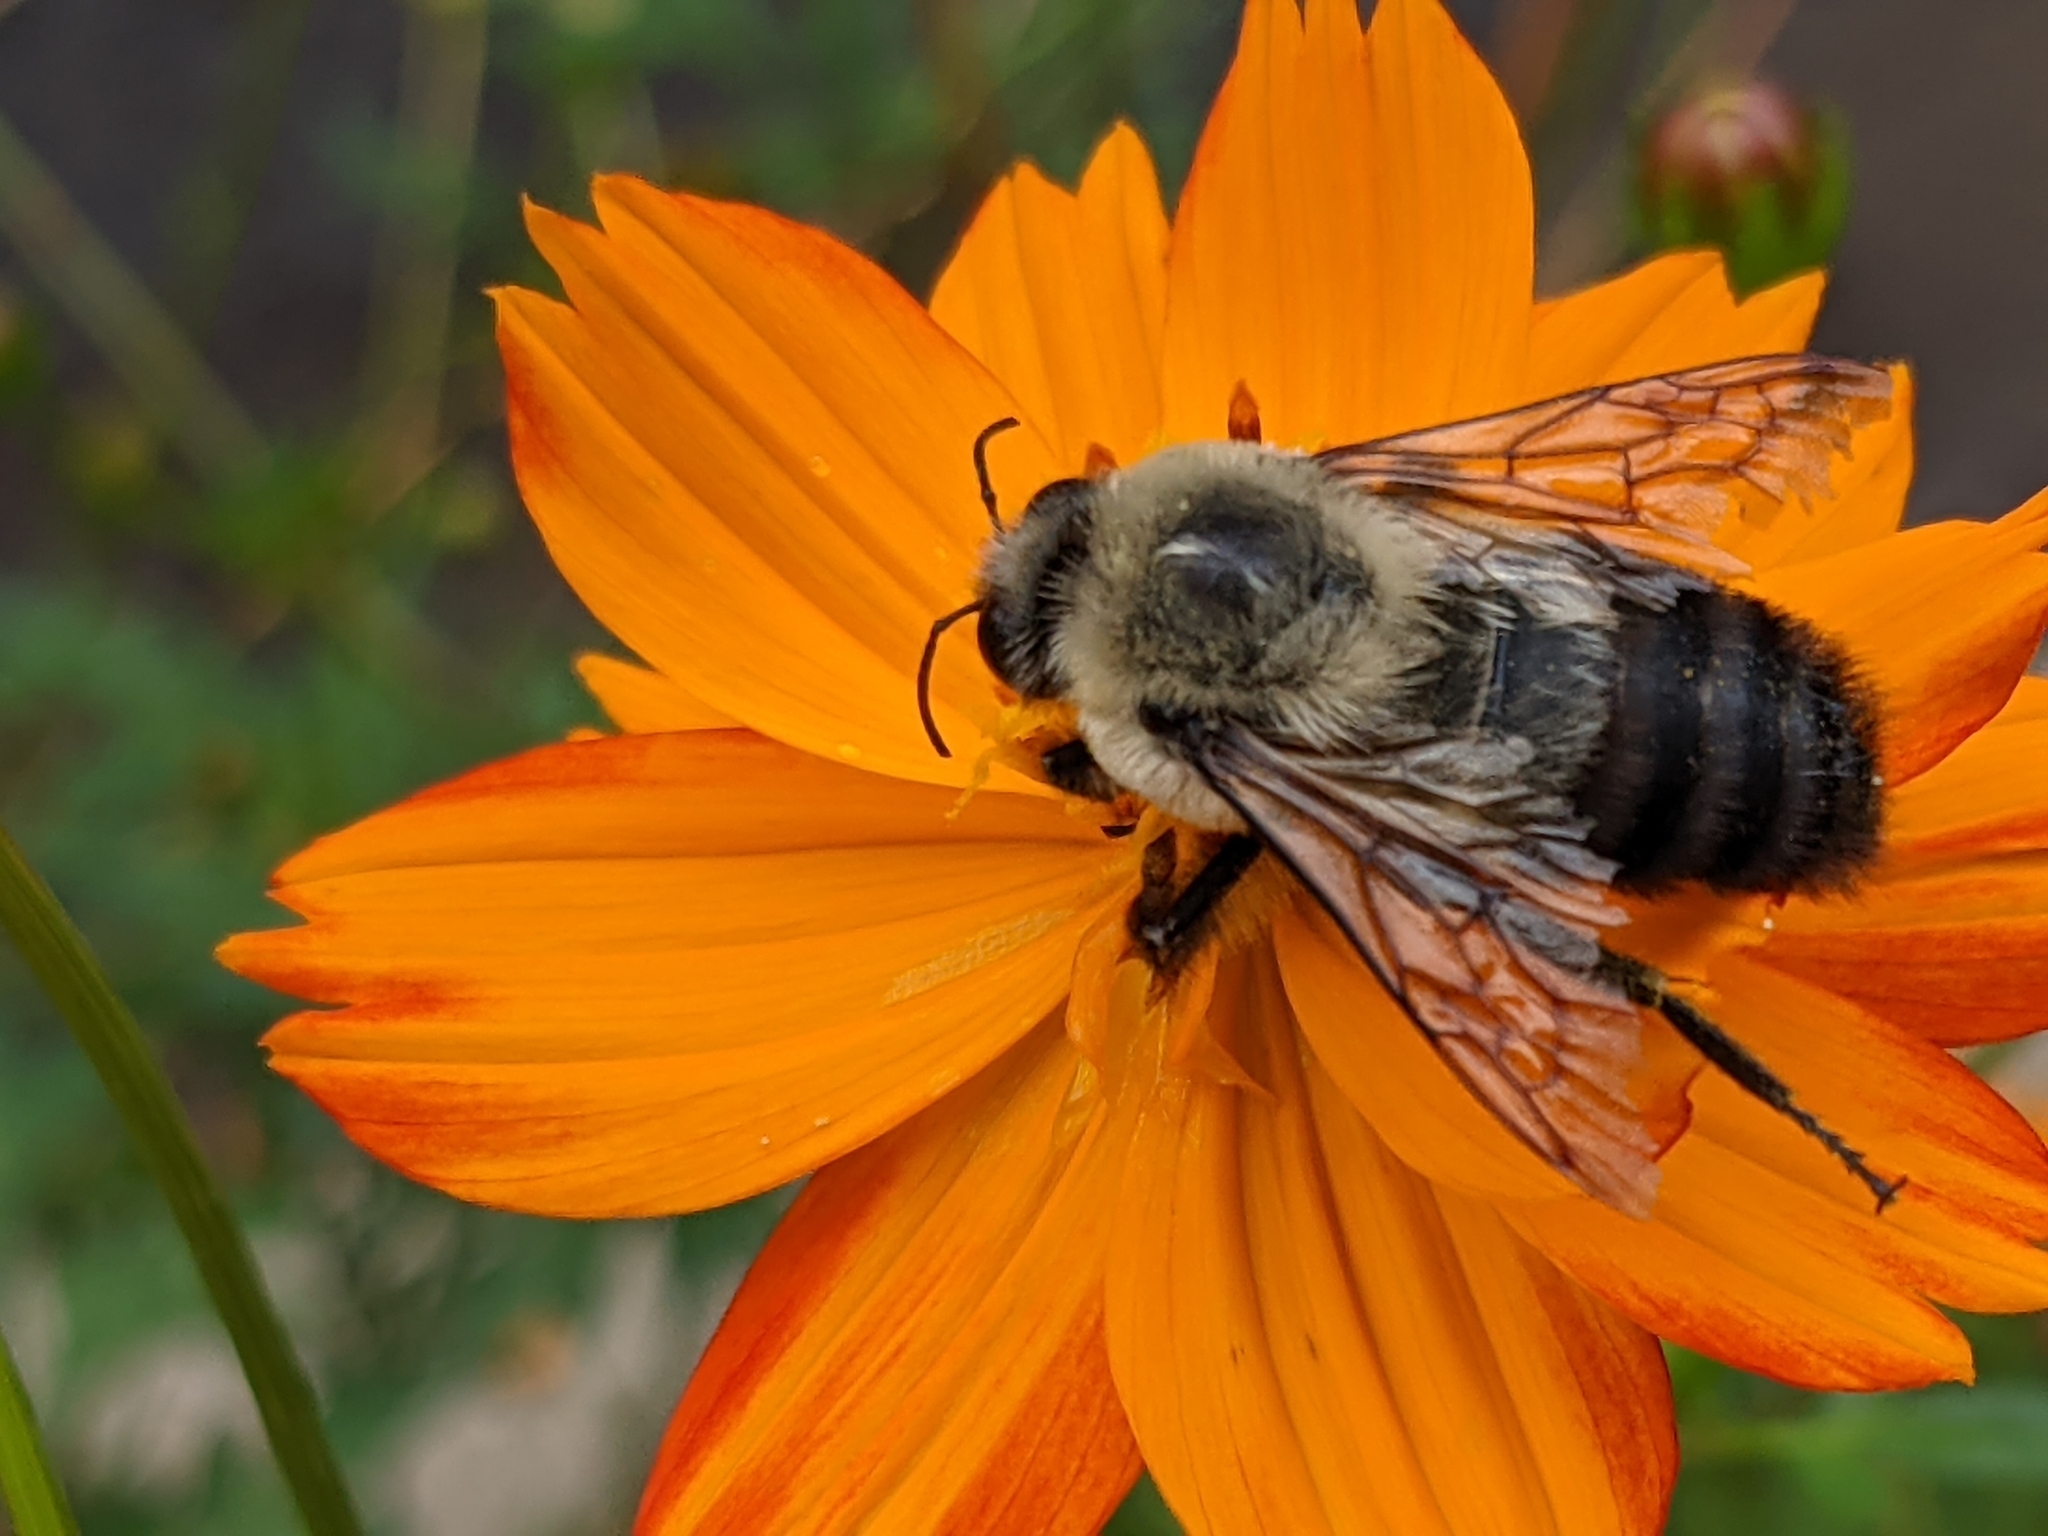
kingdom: Animalia
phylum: Arthropoda
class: Insecta
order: Hymenoptera
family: Apidae
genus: Bombus
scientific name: Bombus griseocollis
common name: Brown-belted bumble bee
